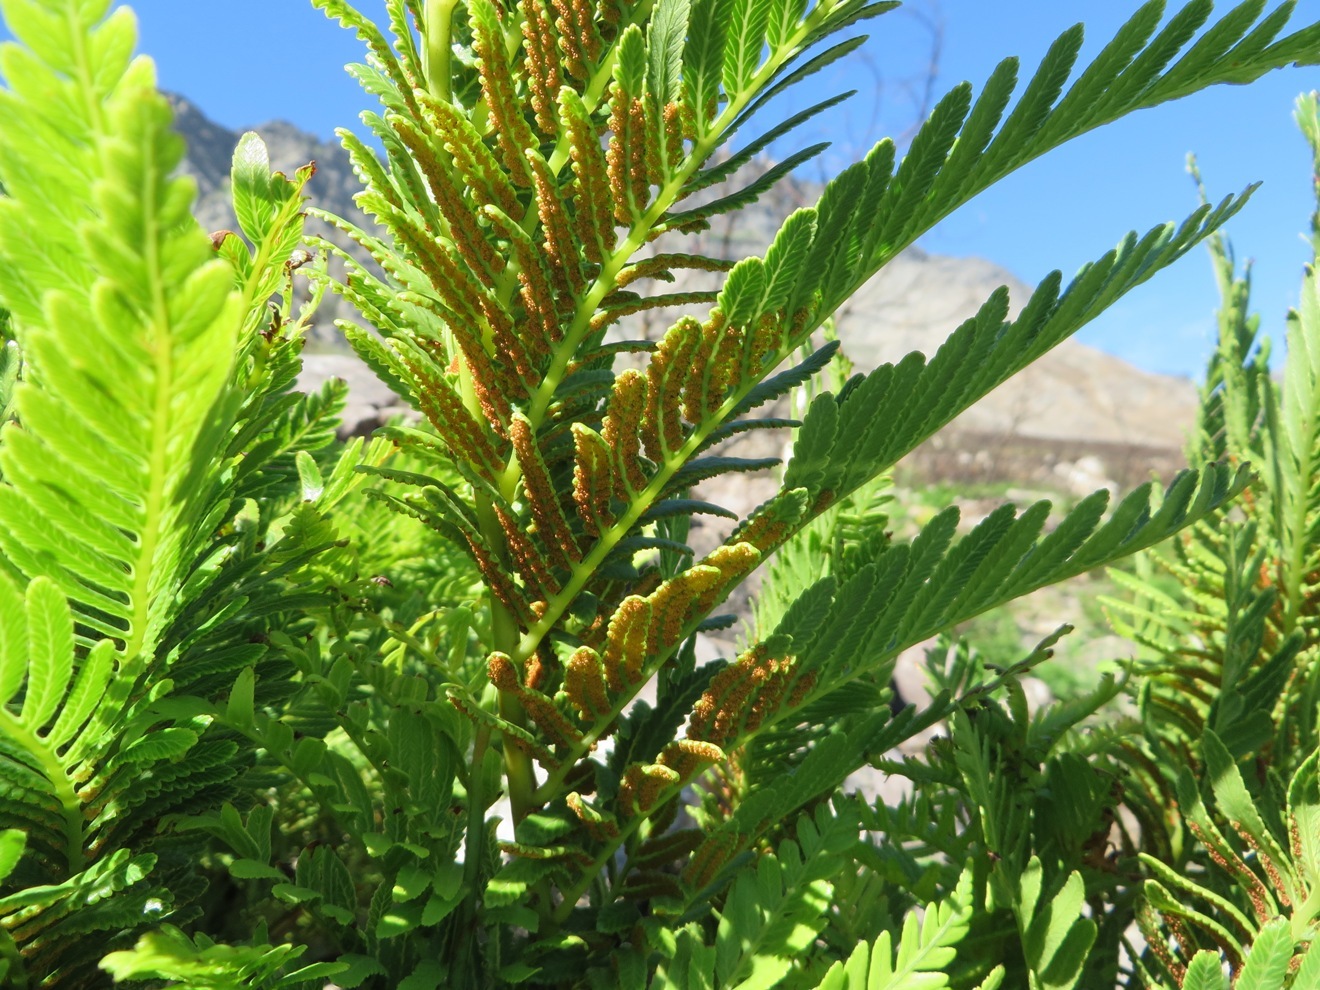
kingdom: Plantae
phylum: Tracheophyta
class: Polypodiopsida
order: Osmundales
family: Osmundaceae
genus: Todea
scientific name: Todea barbara
